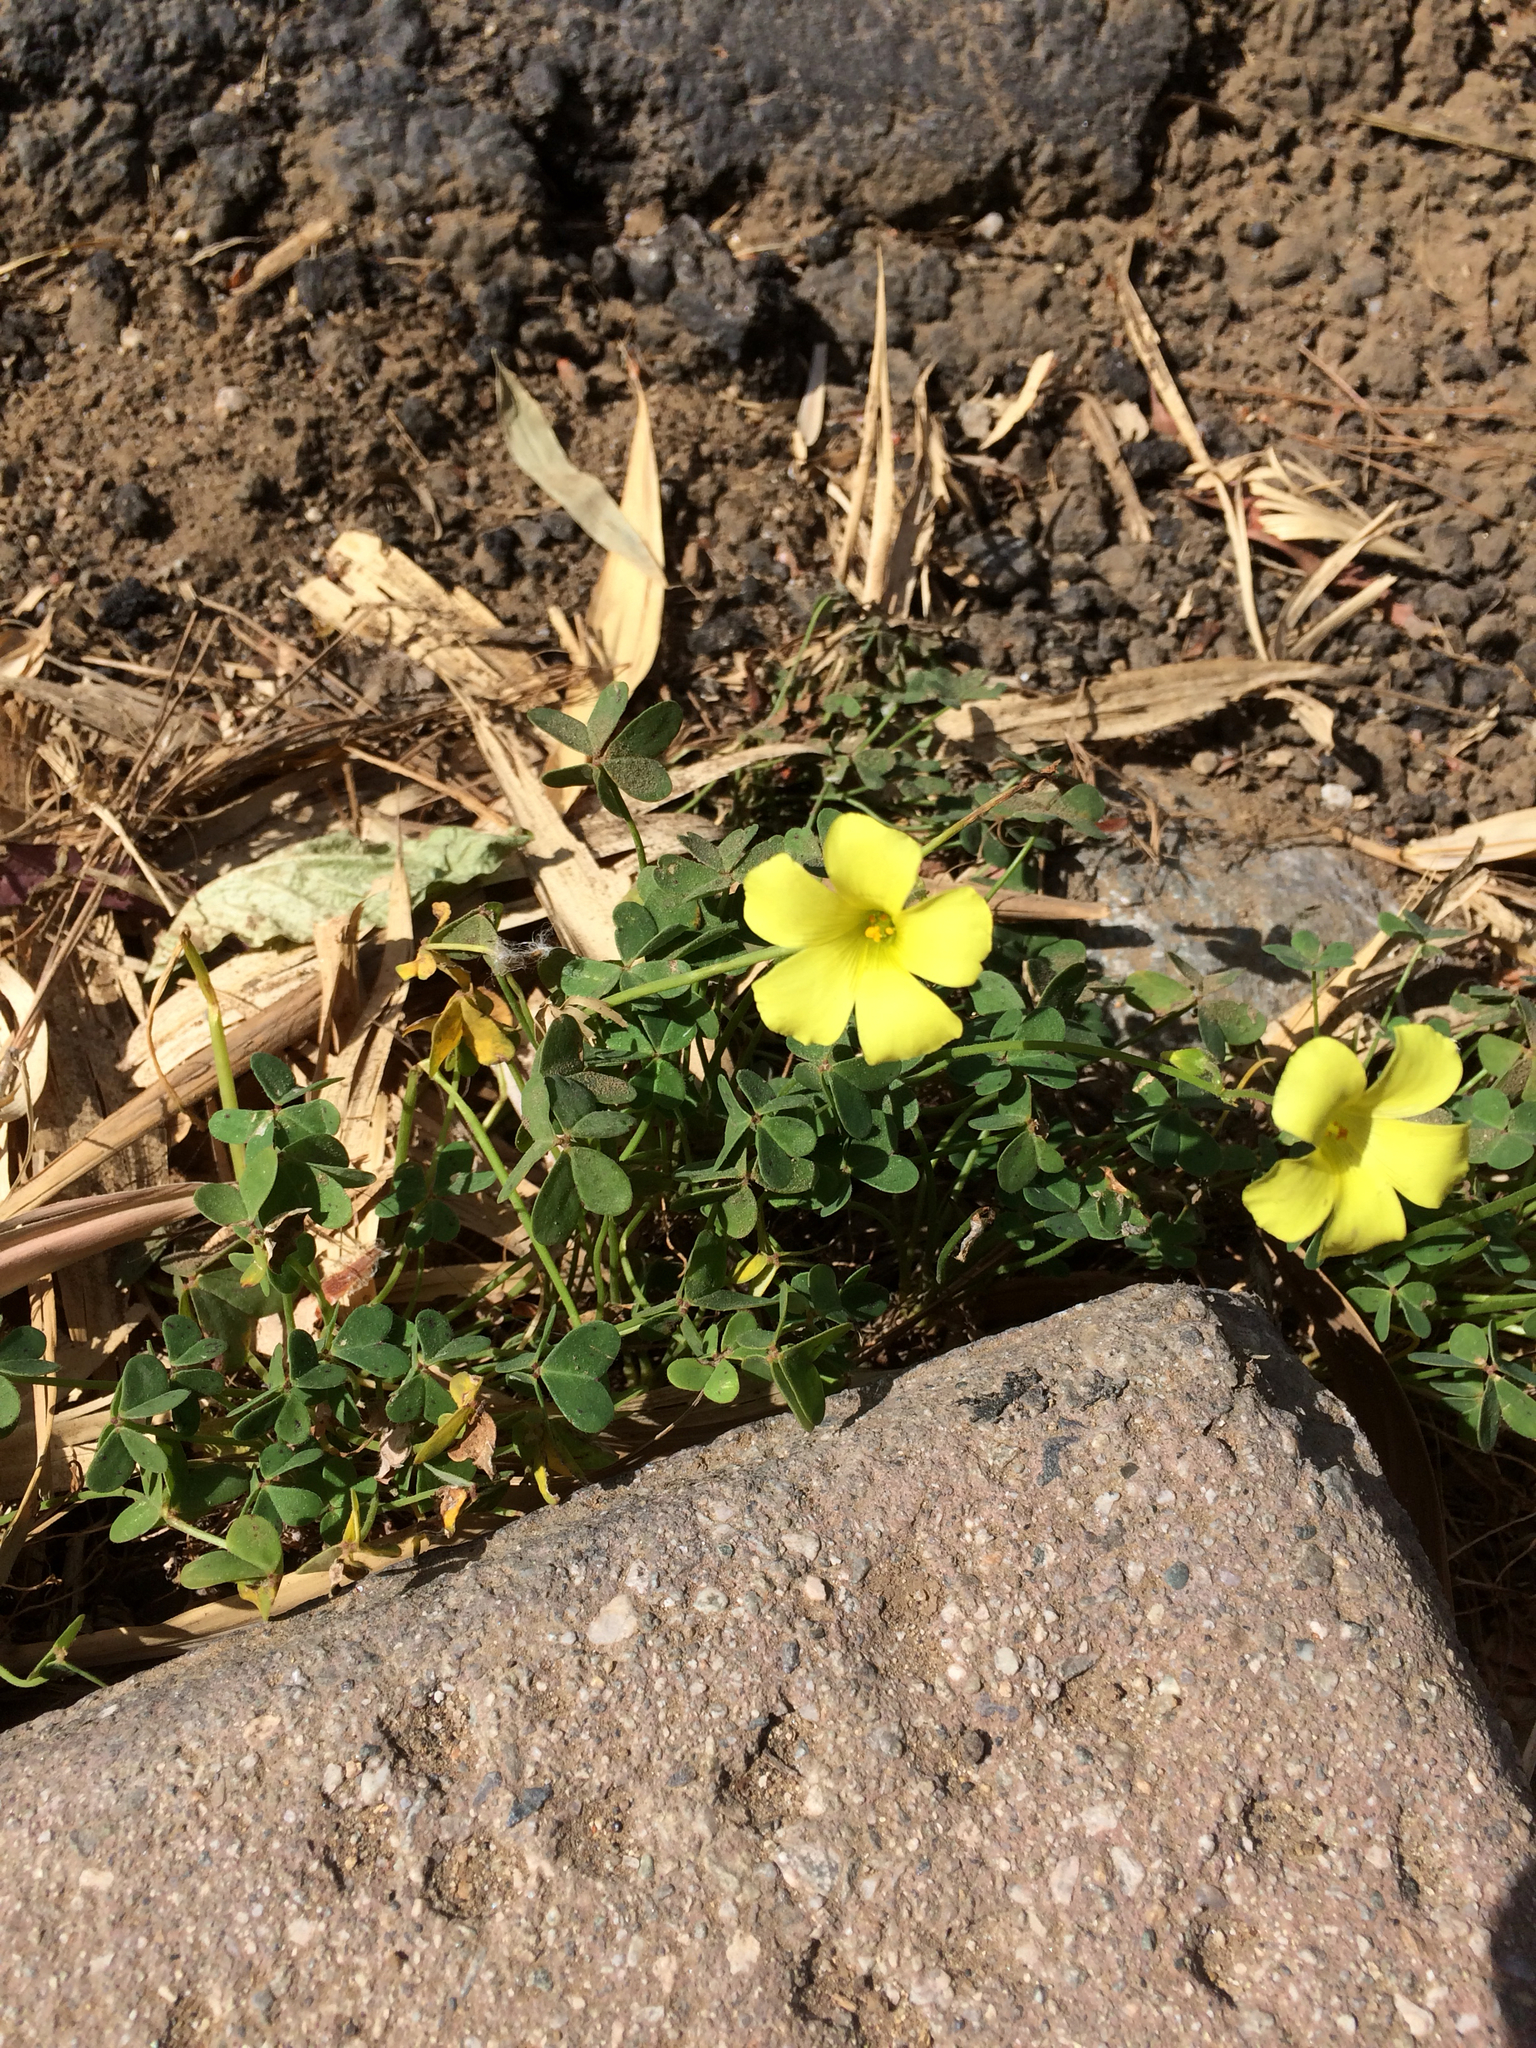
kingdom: Plantae
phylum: Tracheophyta
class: Magnoliopsida
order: Oxalidales
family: Oxalidaceae
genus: Oxalis
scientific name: Oxalis pes-caprae
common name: Bermuda-buttercup
